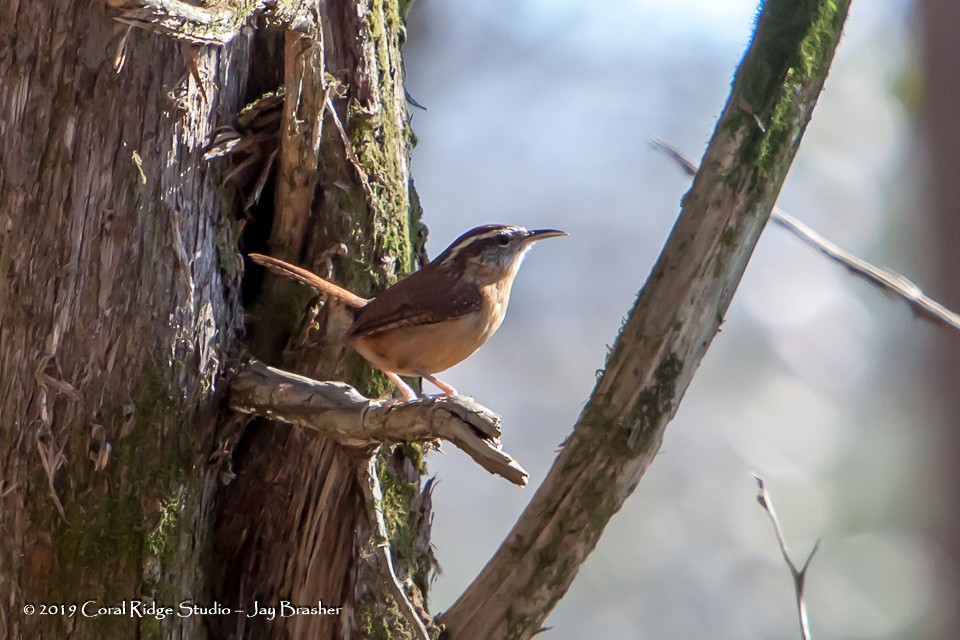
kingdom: Animalia
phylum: Chordata
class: Aves
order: Passeriformes
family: Troglodytidae
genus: Thryothorus
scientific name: Thryothorus ludovicianus
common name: Carolina wren
